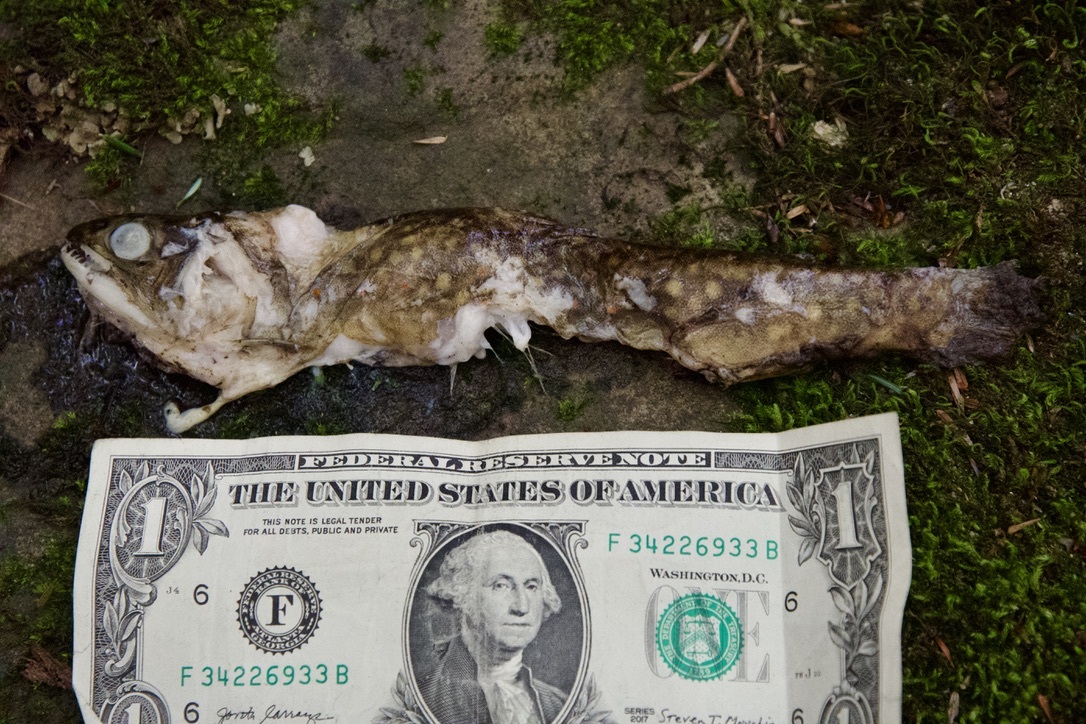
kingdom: Animalia
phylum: Chordata
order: Salmoniformes
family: Salmonidae
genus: Salvelinus
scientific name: Salvelinus fontinalis
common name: Brook trout
